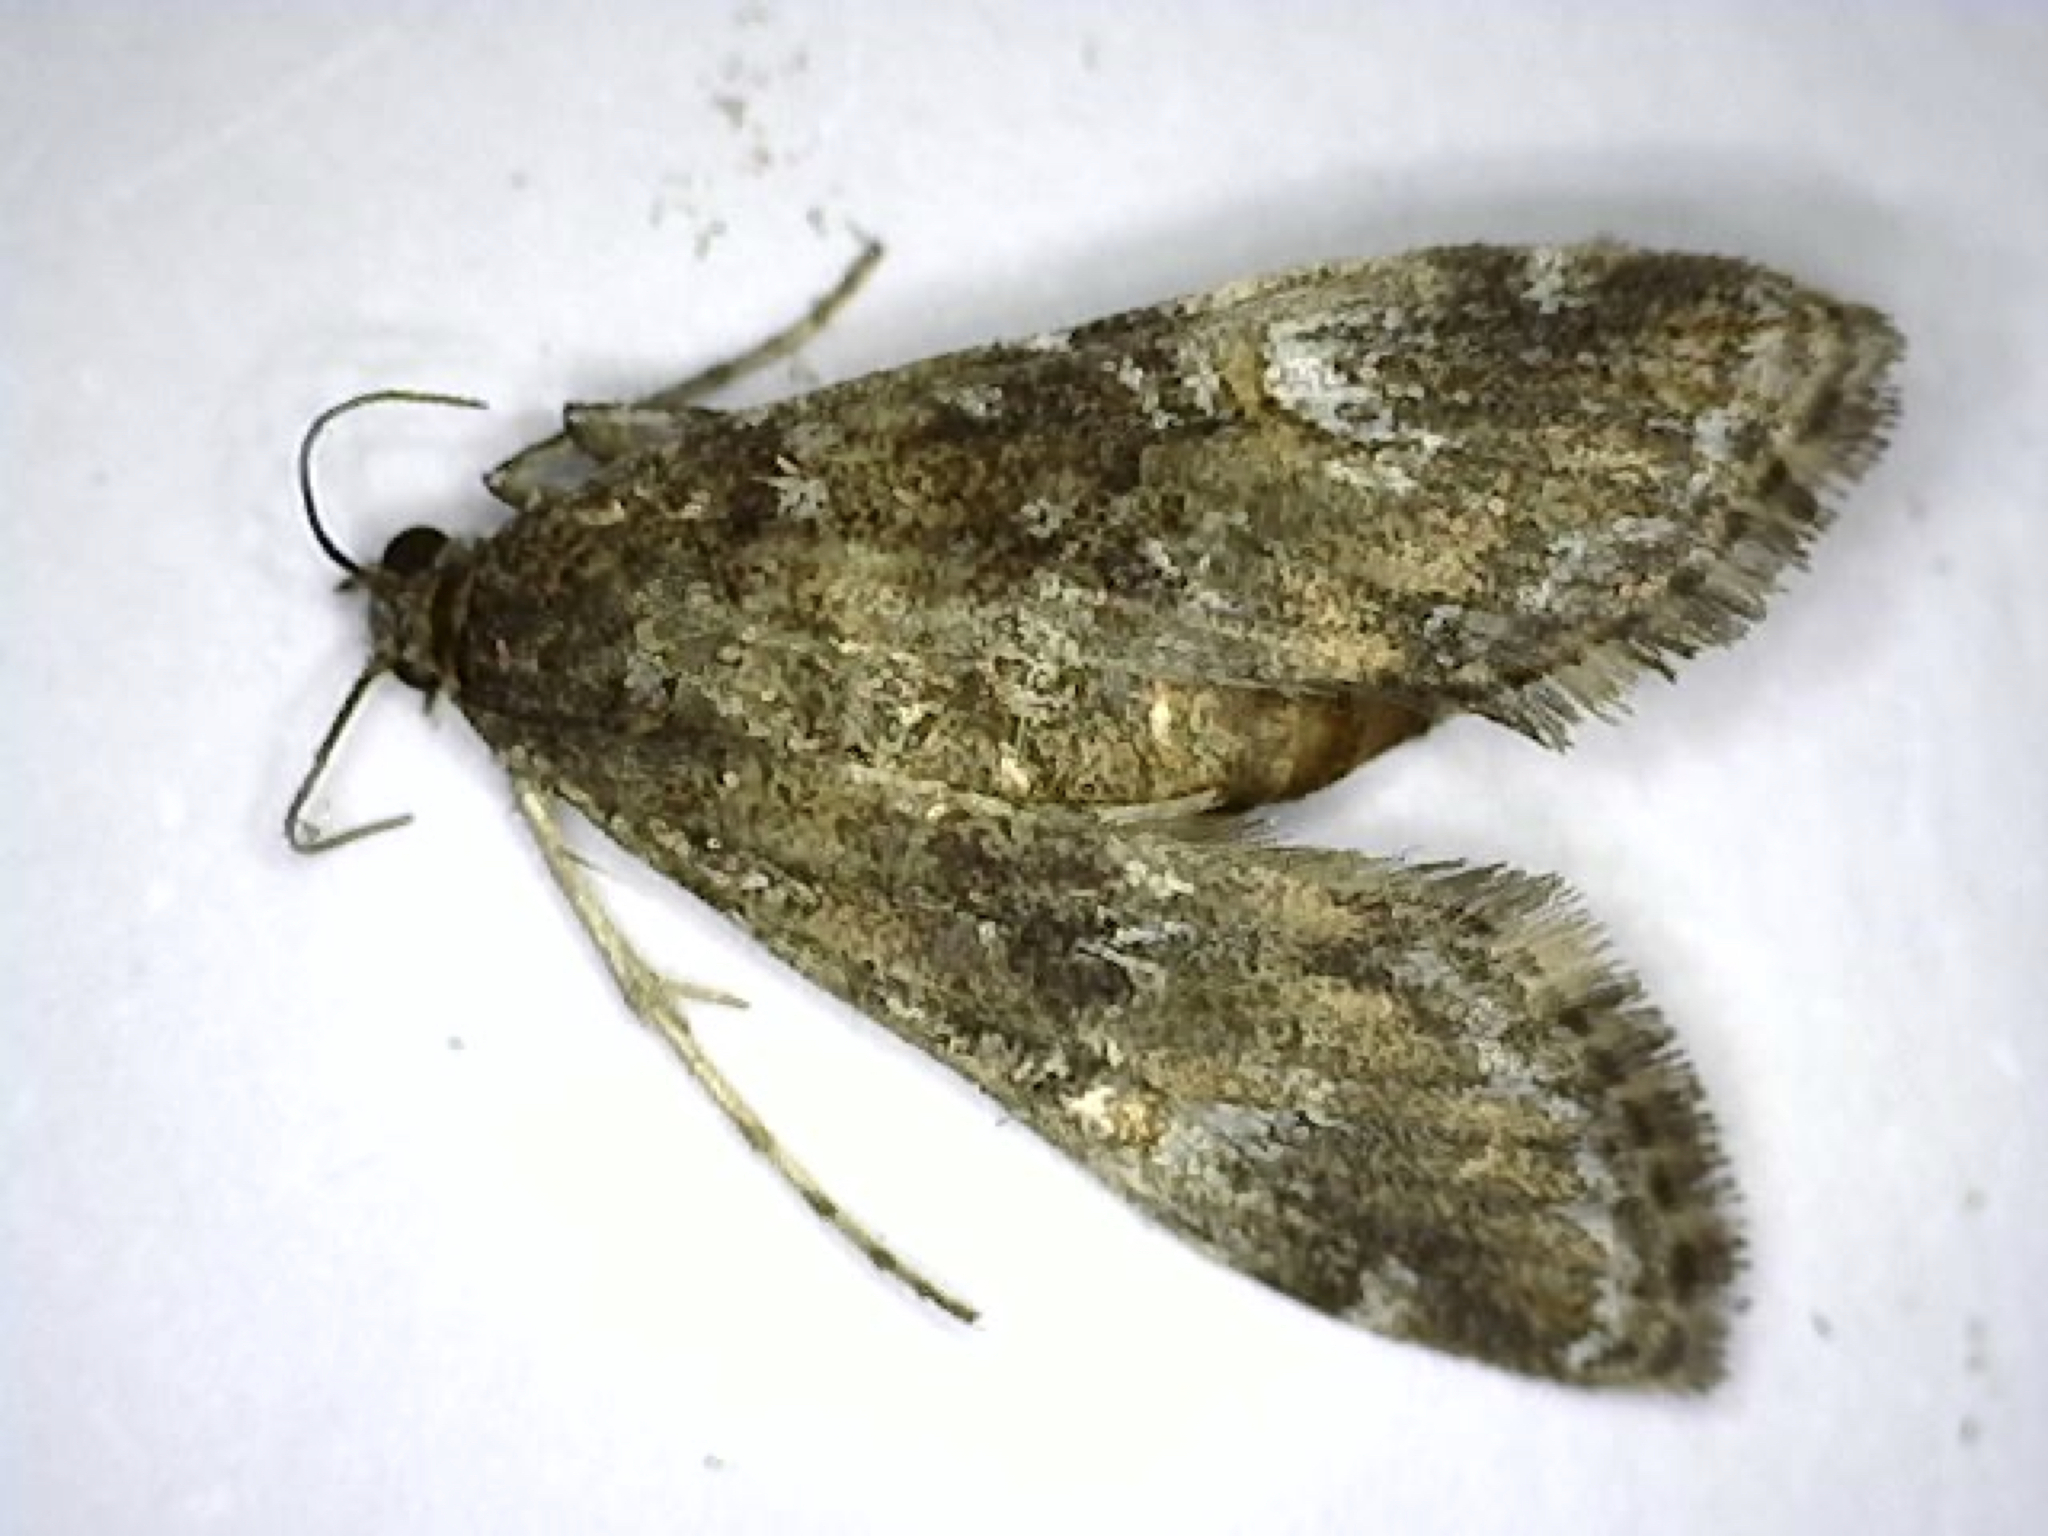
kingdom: Animalia
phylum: Arthropoda
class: Insecta
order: Lepidoptera
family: Crambidae
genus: Elophila
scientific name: Elophila obliteralis
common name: Waterlily leafcutter moth
